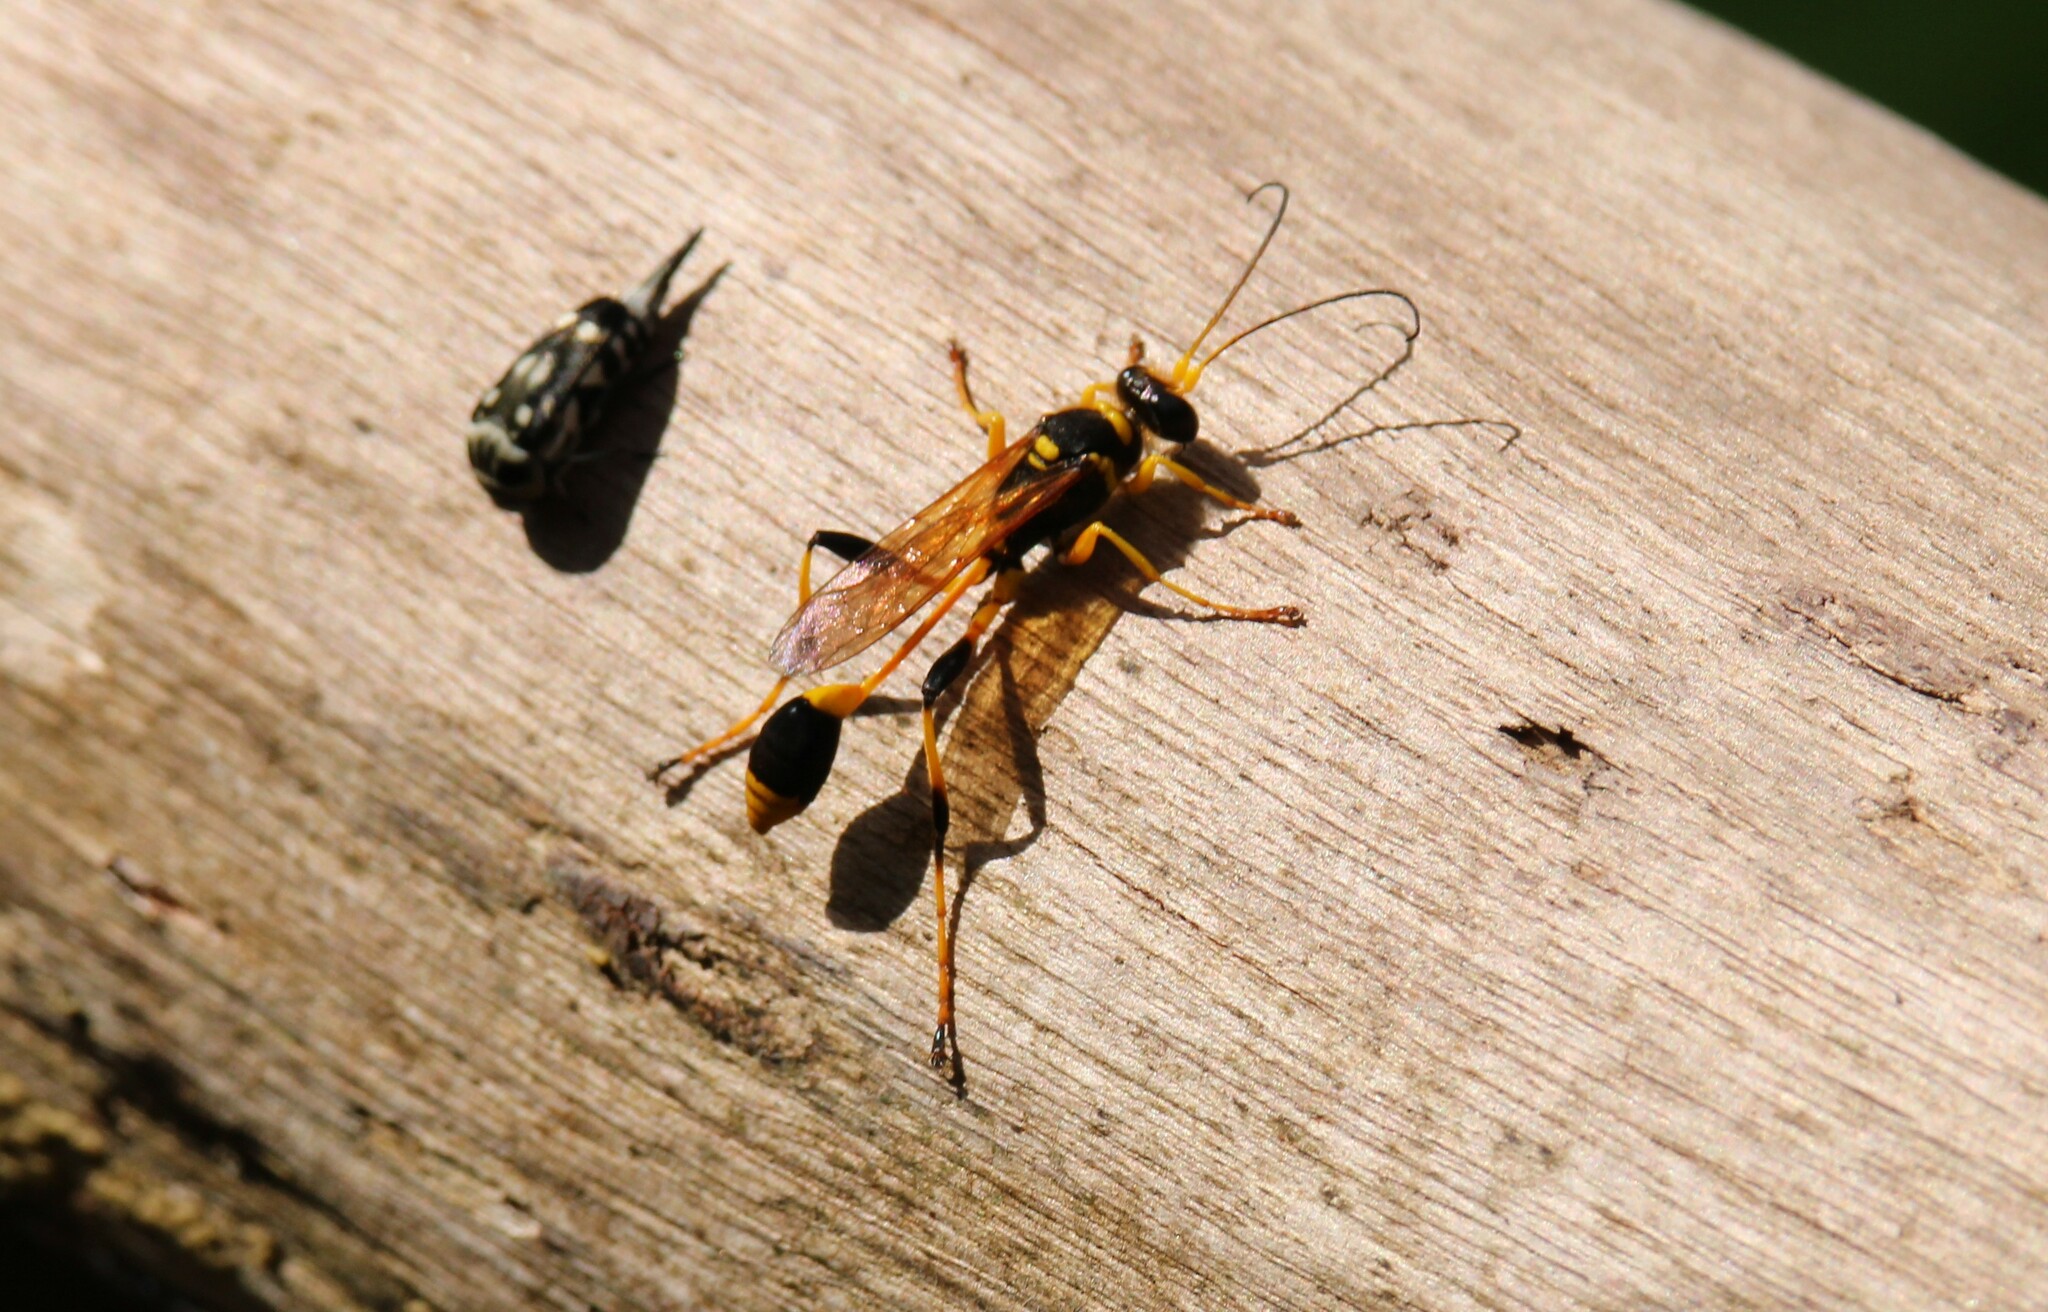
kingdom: Animalia
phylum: Arthropoda
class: Insecta
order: Hymenoptera
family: Sphecidae
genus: Sceliphron
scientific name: Sceliphron laetum
